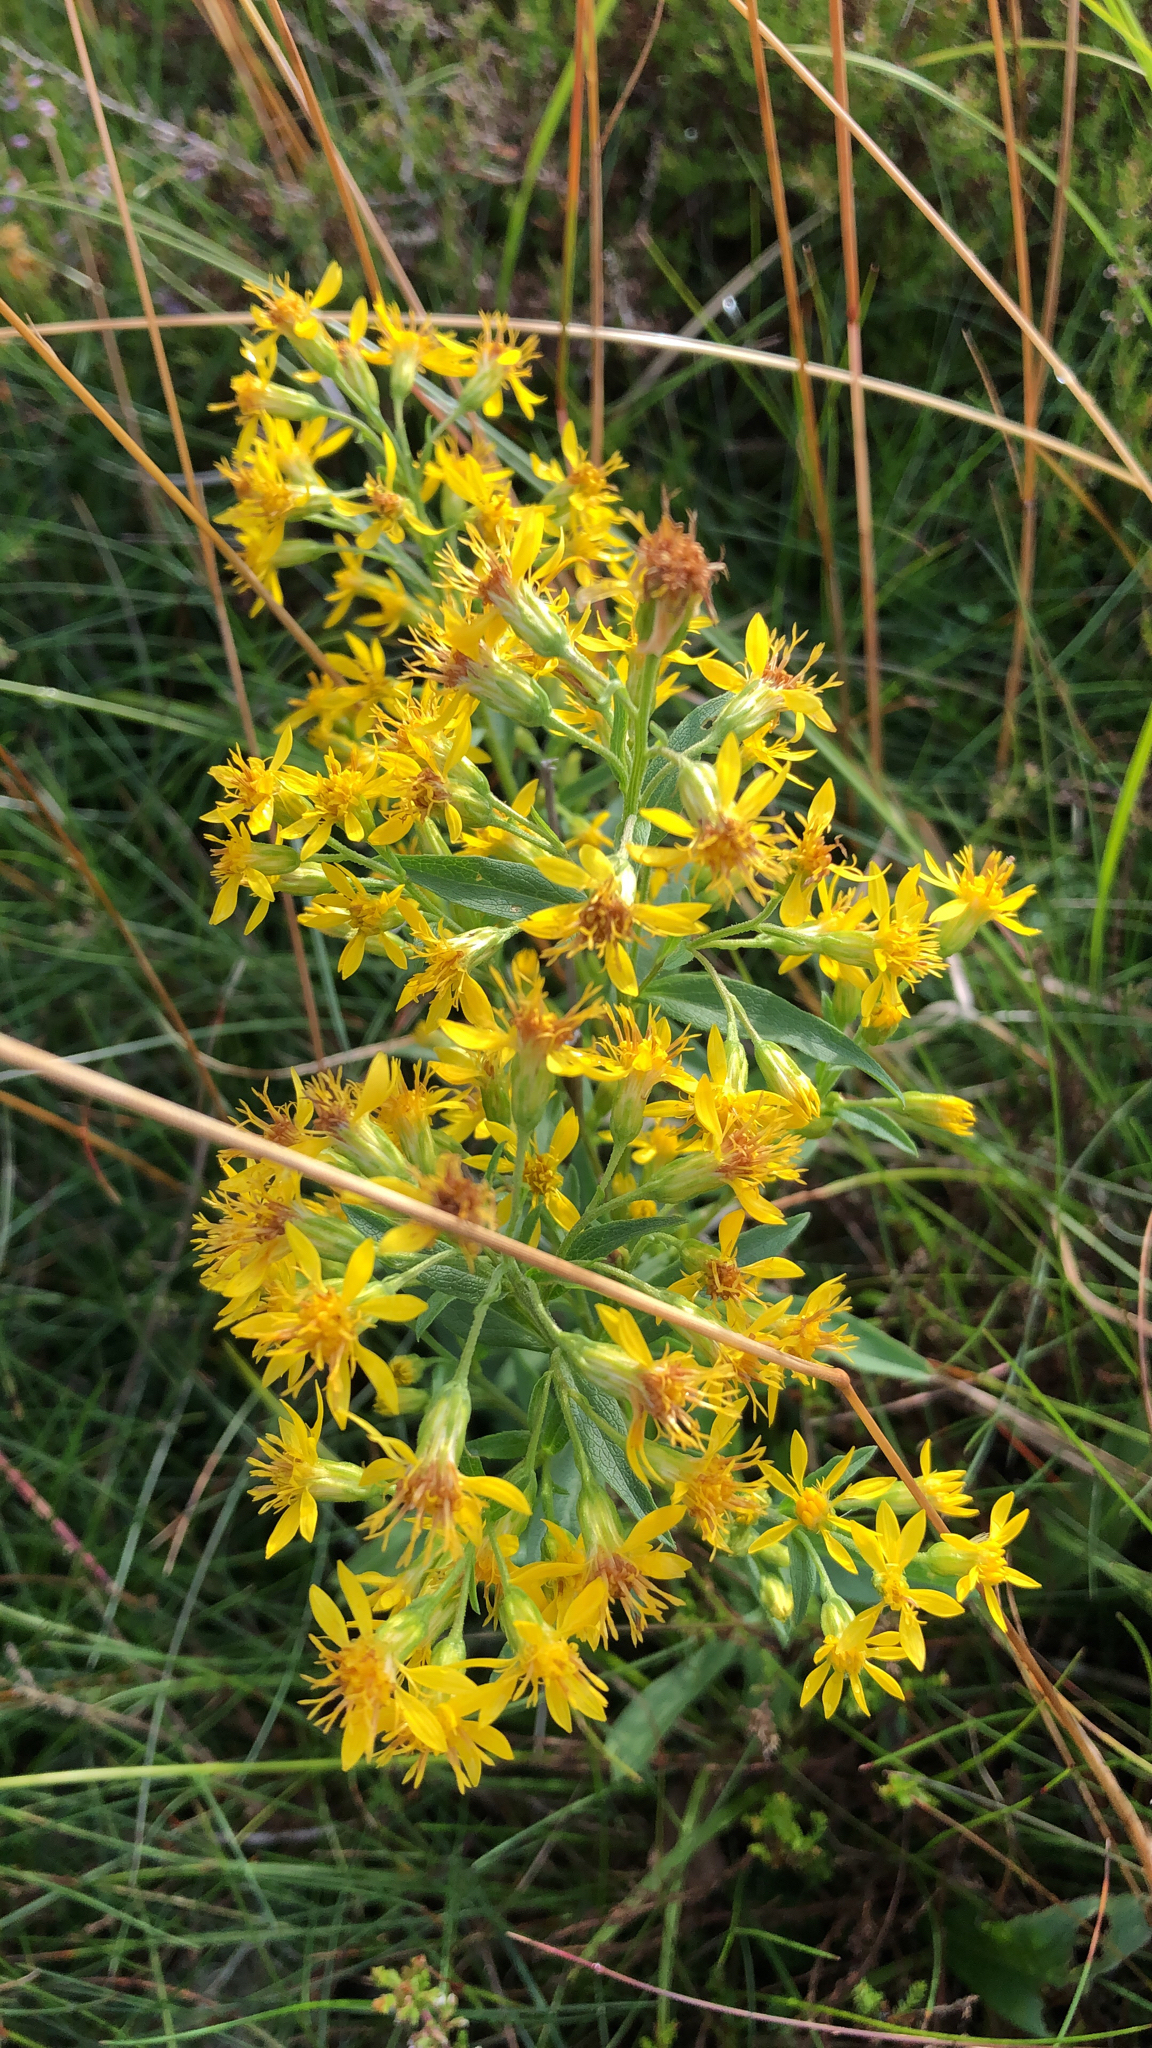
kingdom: Plantae
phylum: Tracheophyta
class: Magnoliopsida
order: Asterales
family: Asteraceae
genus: Solidago
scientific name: Solidago virgaurea
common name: Goldenrod
